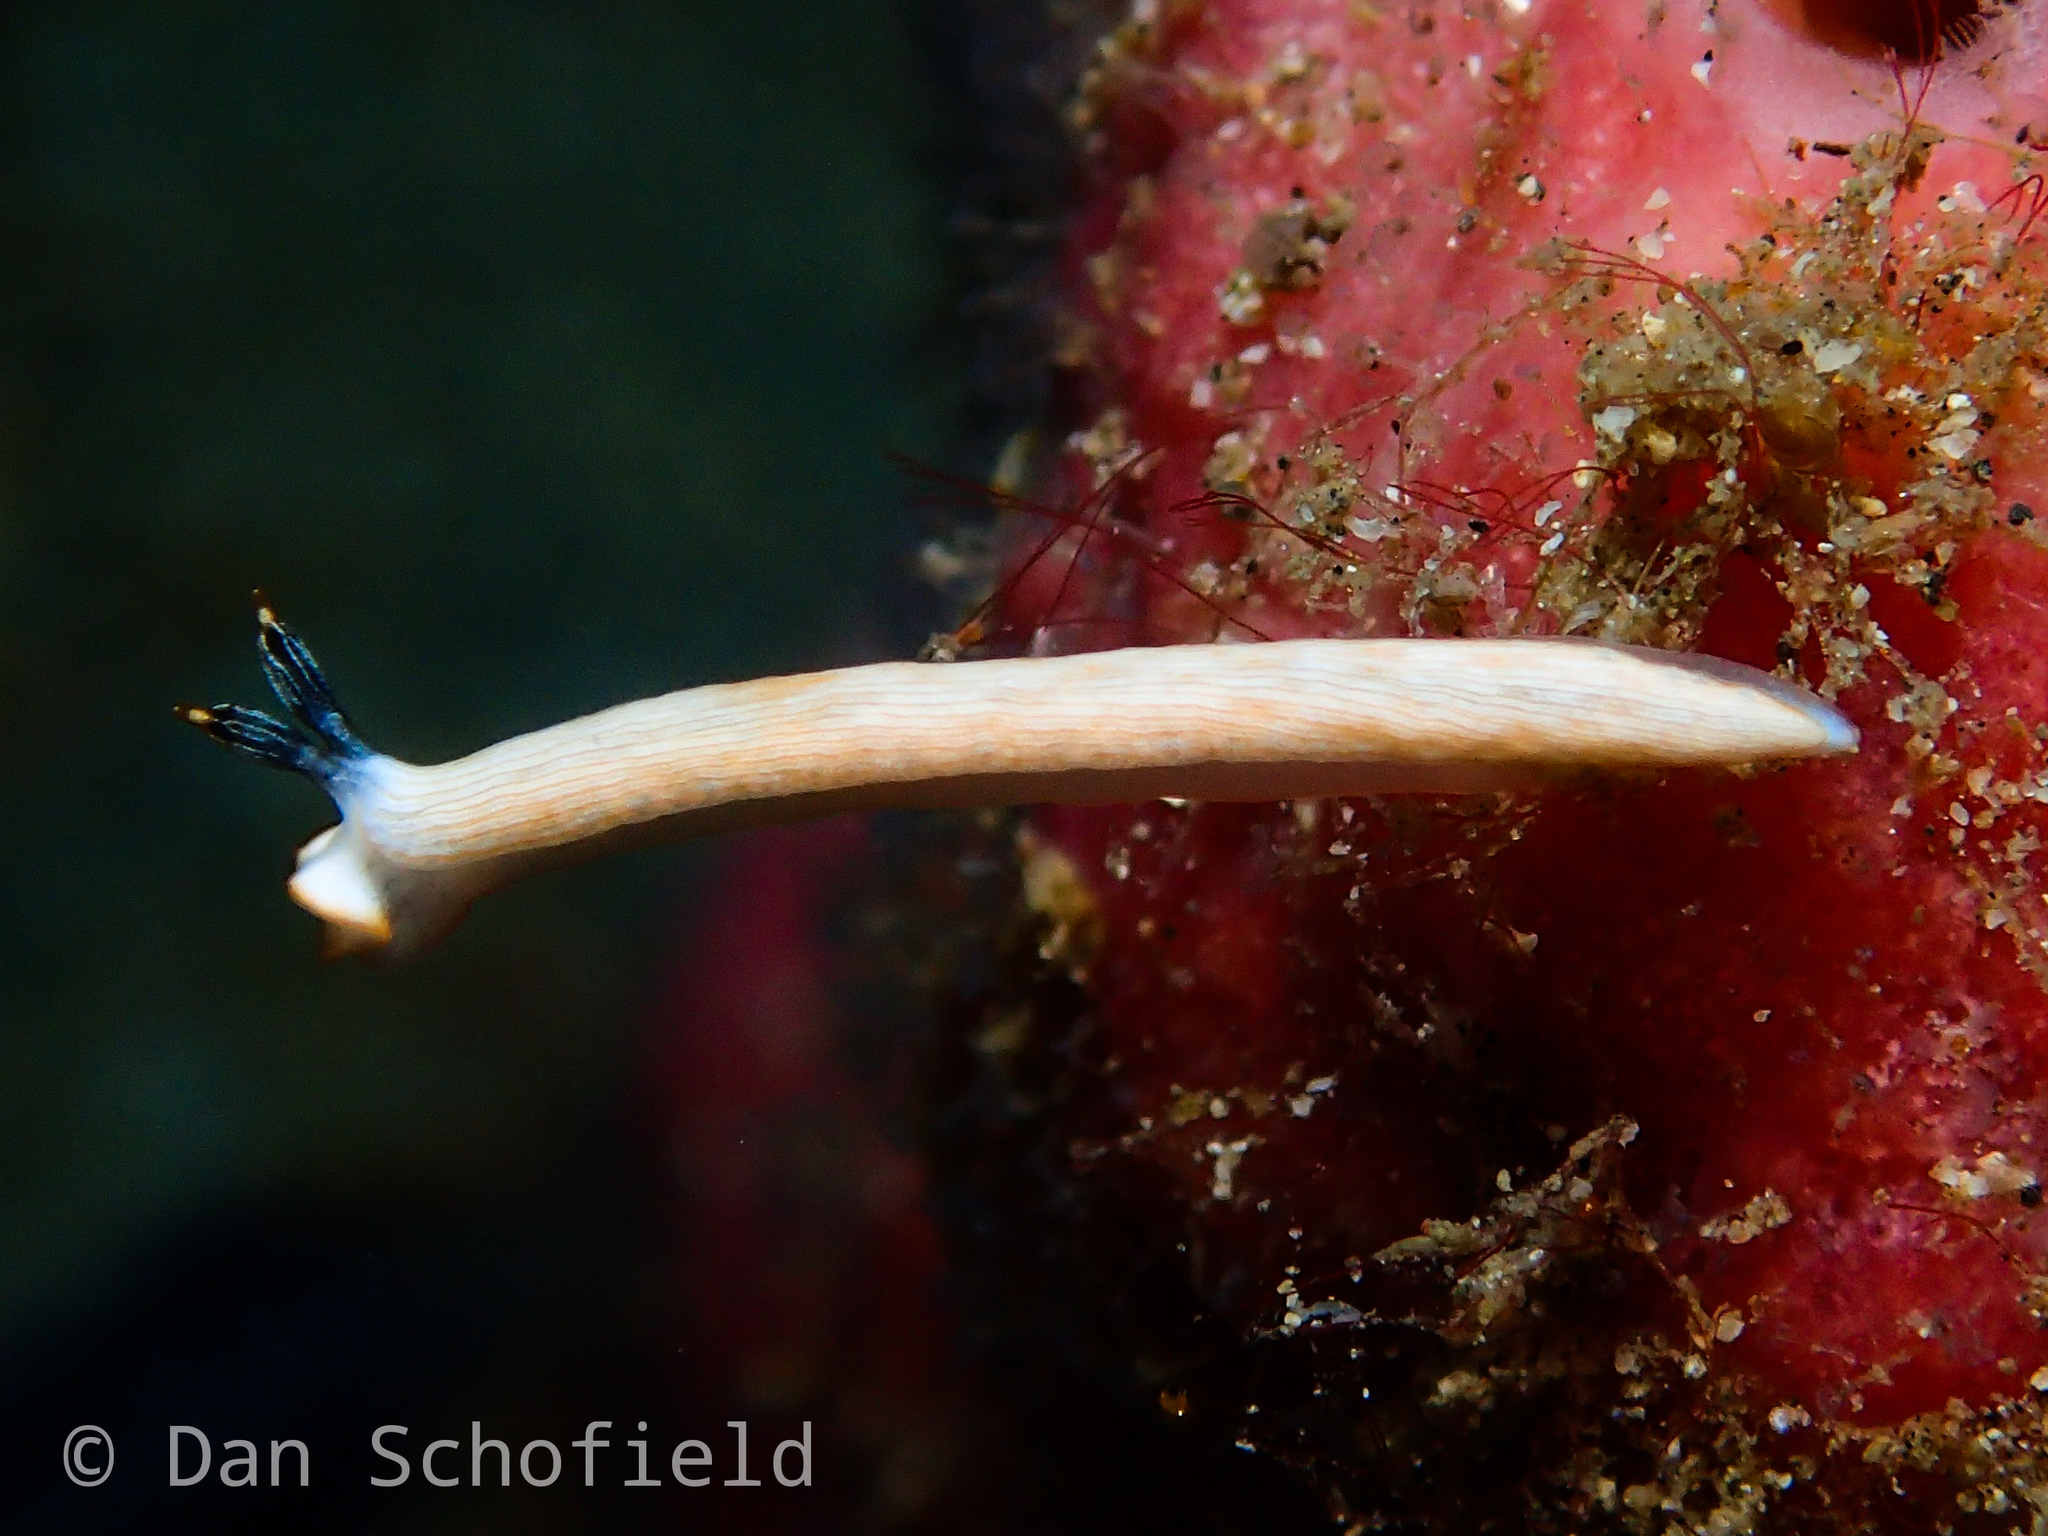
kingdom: Animalia
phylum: Mollusca
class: Gastropoda
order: Nudibranchia
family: Arminidae
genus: Dermatobranchus
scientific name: Dermatobranchus albus
